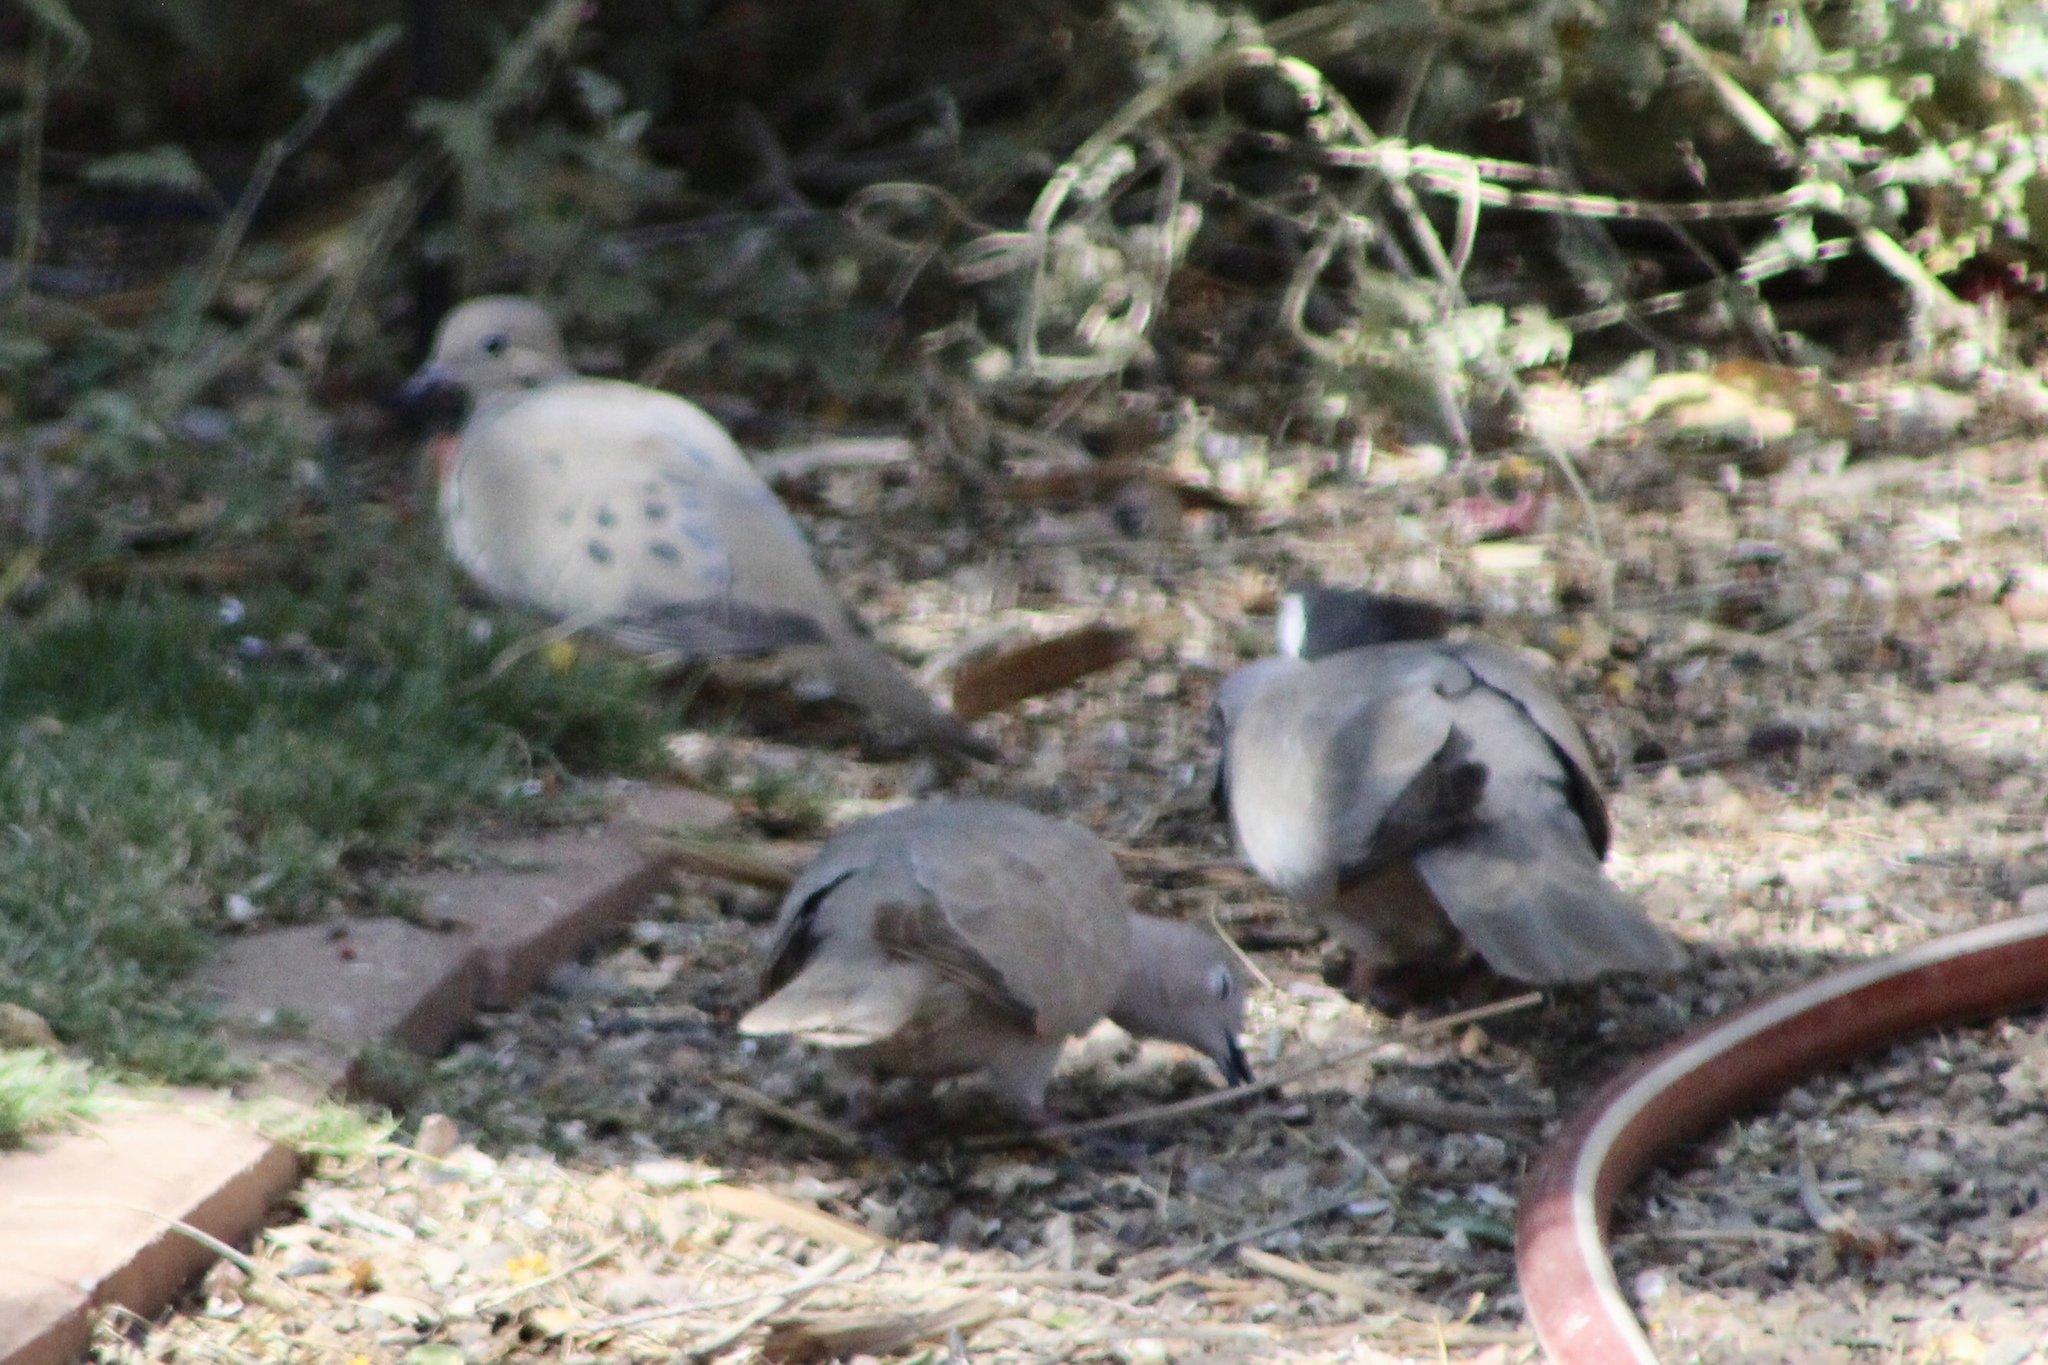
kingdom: Animalia
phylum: Chordata
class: Aves
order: Columbiformes
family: Columbidae
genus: Zenaida
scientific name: Zenaida macroura
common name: Mourning dove
